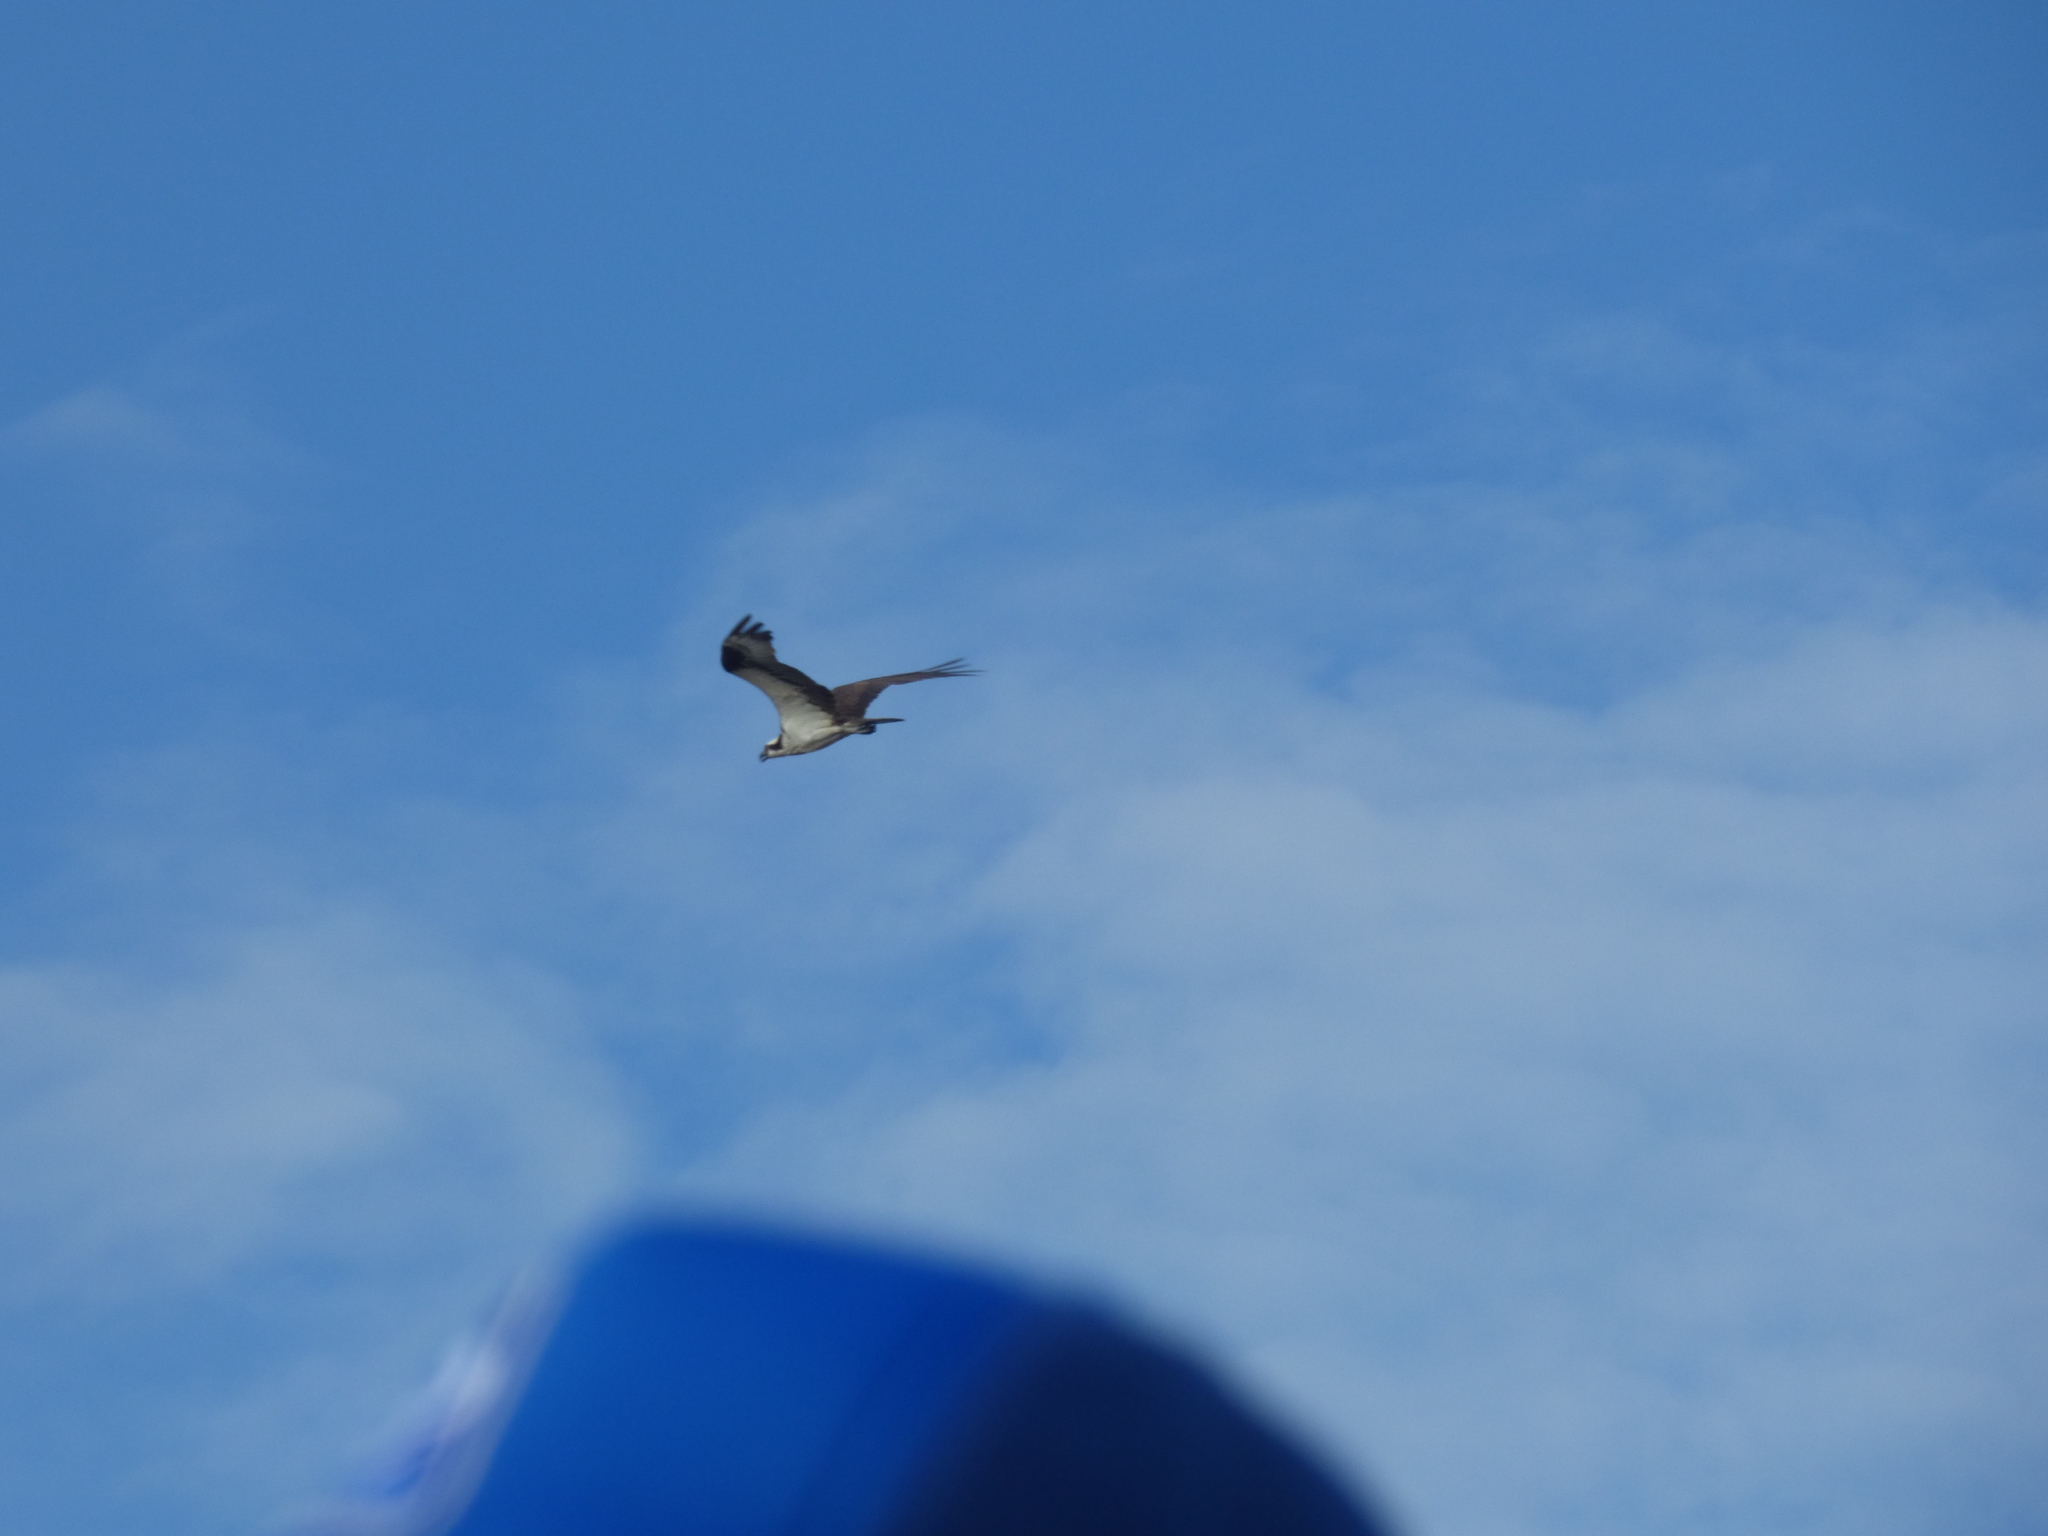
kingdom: Animalia
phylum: Chordata
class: Aves
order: Accipitriformes
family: Pandionidae
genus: Pandion
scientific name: Pandion haliaetus
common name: Osprey
